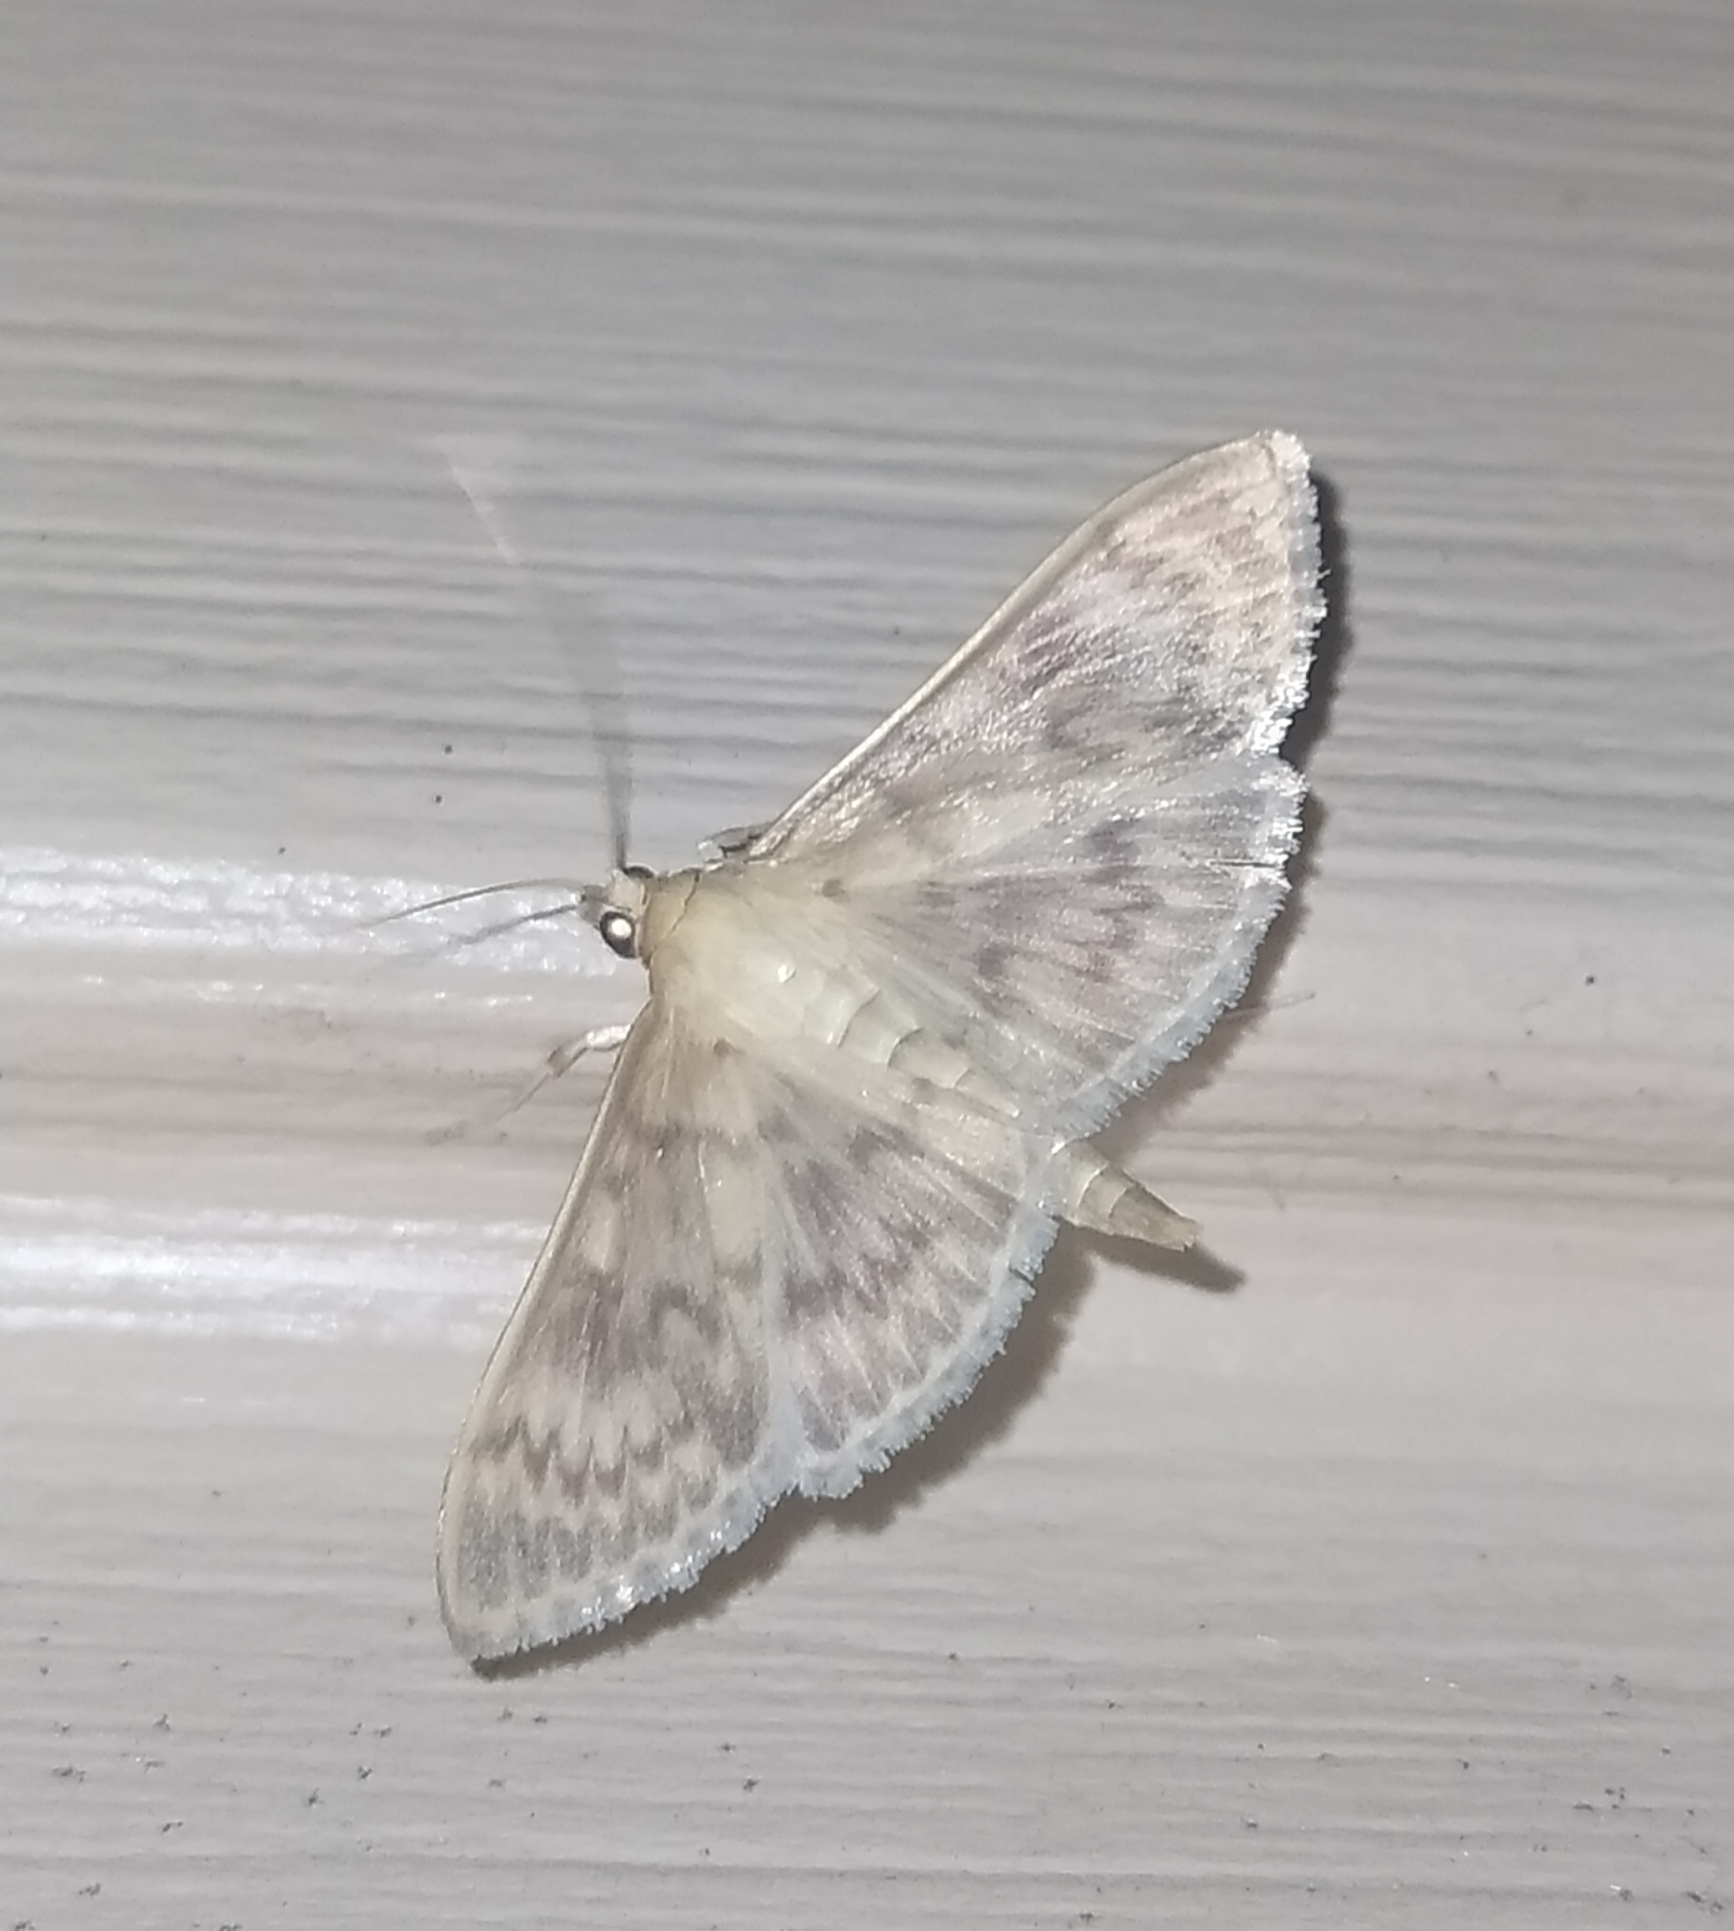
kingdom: Animalia
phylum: Arthropoda
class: Insecta
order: Lepidoptera
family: Crambidae
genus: Patania
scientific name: Patania ruralis
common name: Mother of pearl
